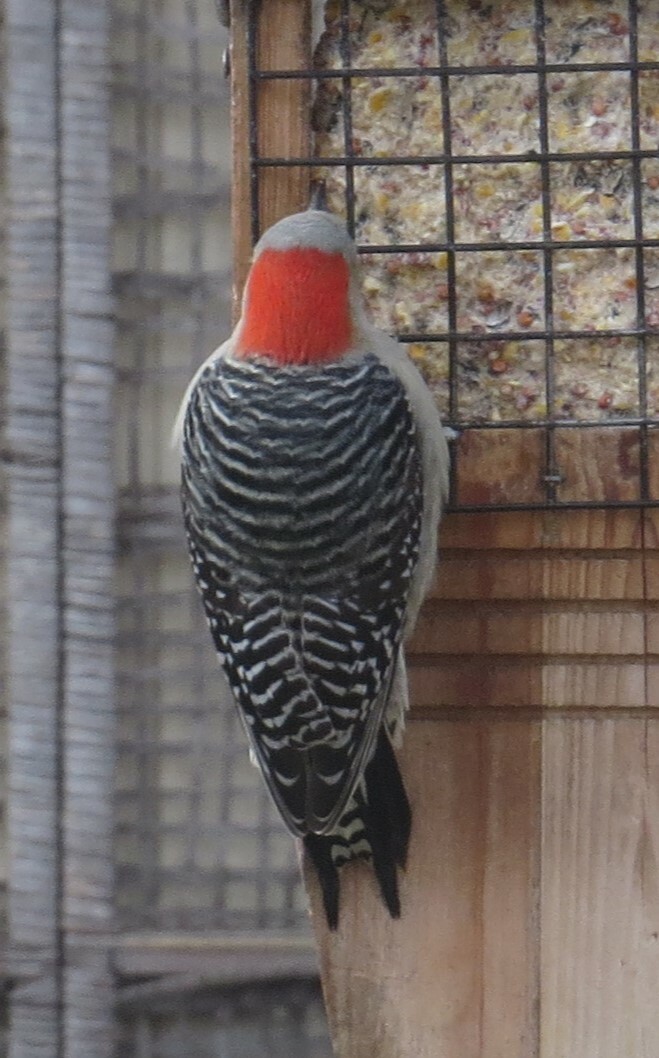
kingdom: Animalia
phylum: Chordata
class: Aves
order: Piciformes
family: Picidae
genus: Melanerpes
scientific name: Melanerpes carolinus
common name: Red-bellied woodpecker
